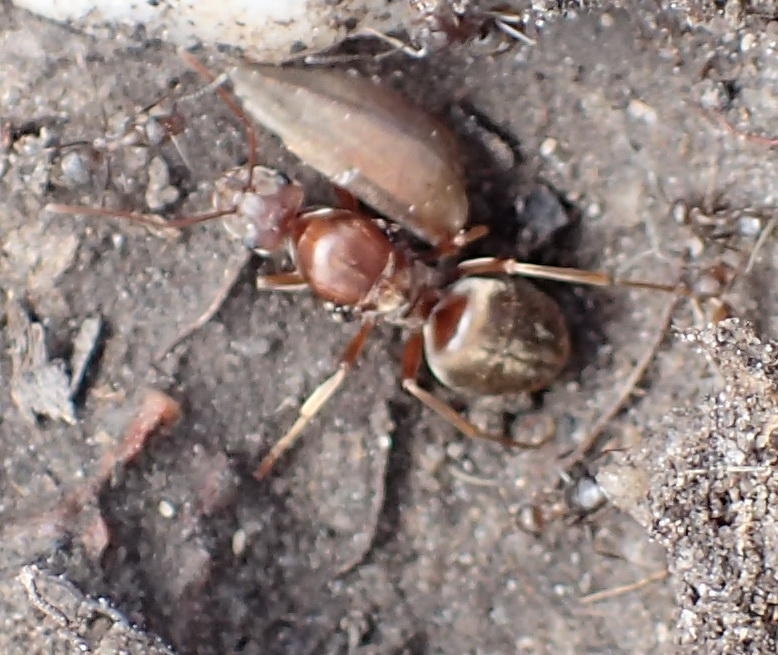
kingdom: Animalia
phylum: Arthropoda
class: Insecta
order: Hymenoptera
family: Formicidae
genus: Anoplolepis
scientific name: Anoplolepis custodiens
